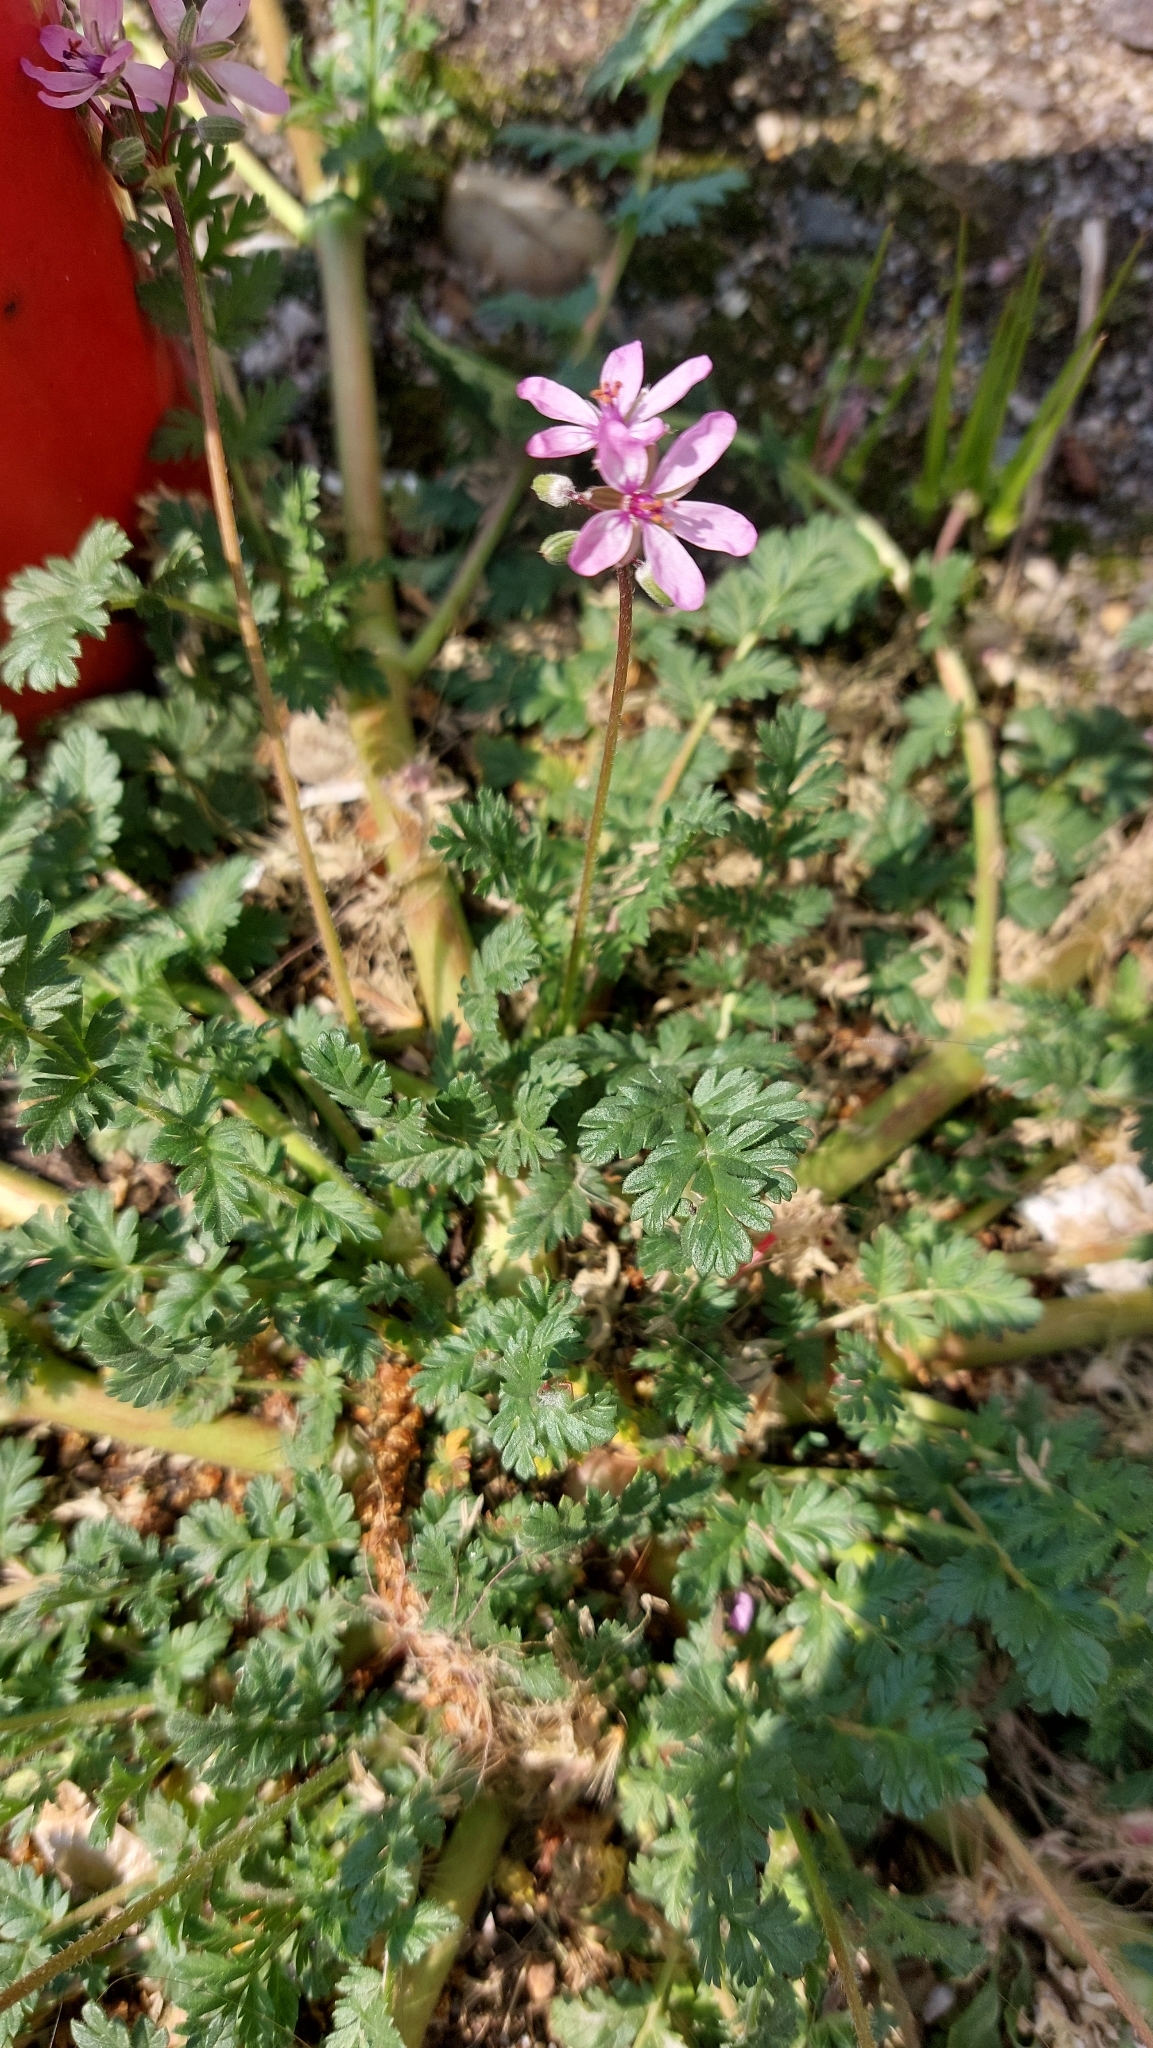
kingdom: Plantae
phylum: Tracheophyta
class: Magnoliopsida
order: Geraniales
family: Geraniaceae
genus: Erodium
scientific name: Erodium cicutarium
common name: Common stork's-bill
